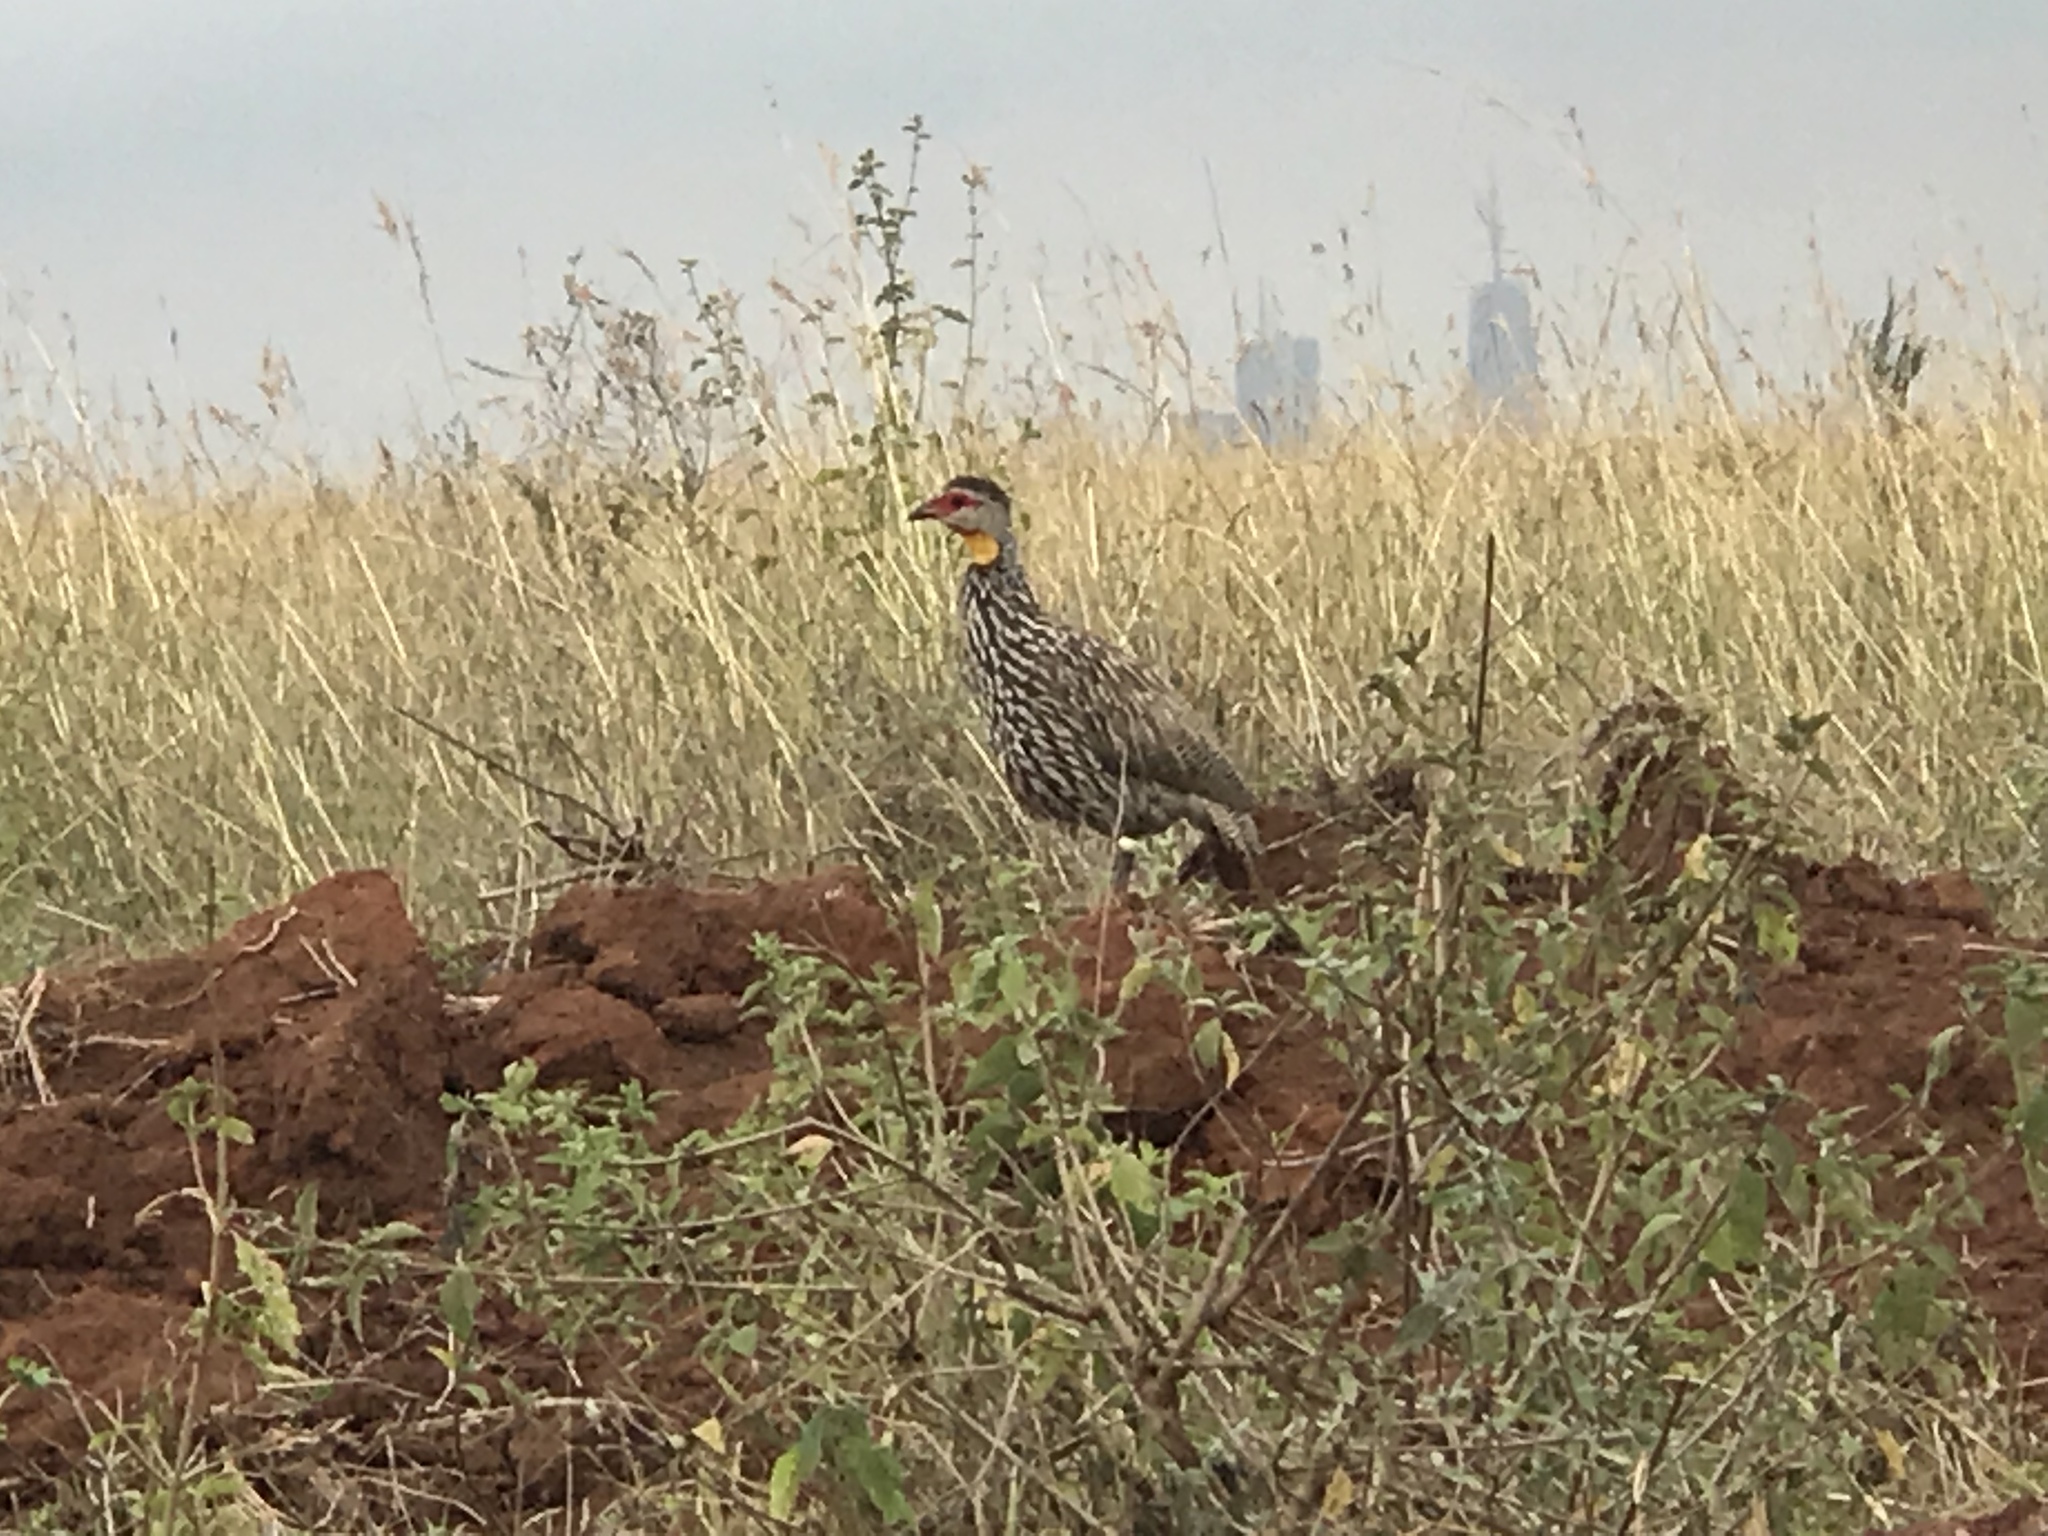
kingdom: Animalia
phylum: Chordata
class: Aves
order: Galliformes
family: Phasianidae
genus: Pternistis
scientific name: Pternistis leucoscepus
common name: Yellow-necked spurfowl
